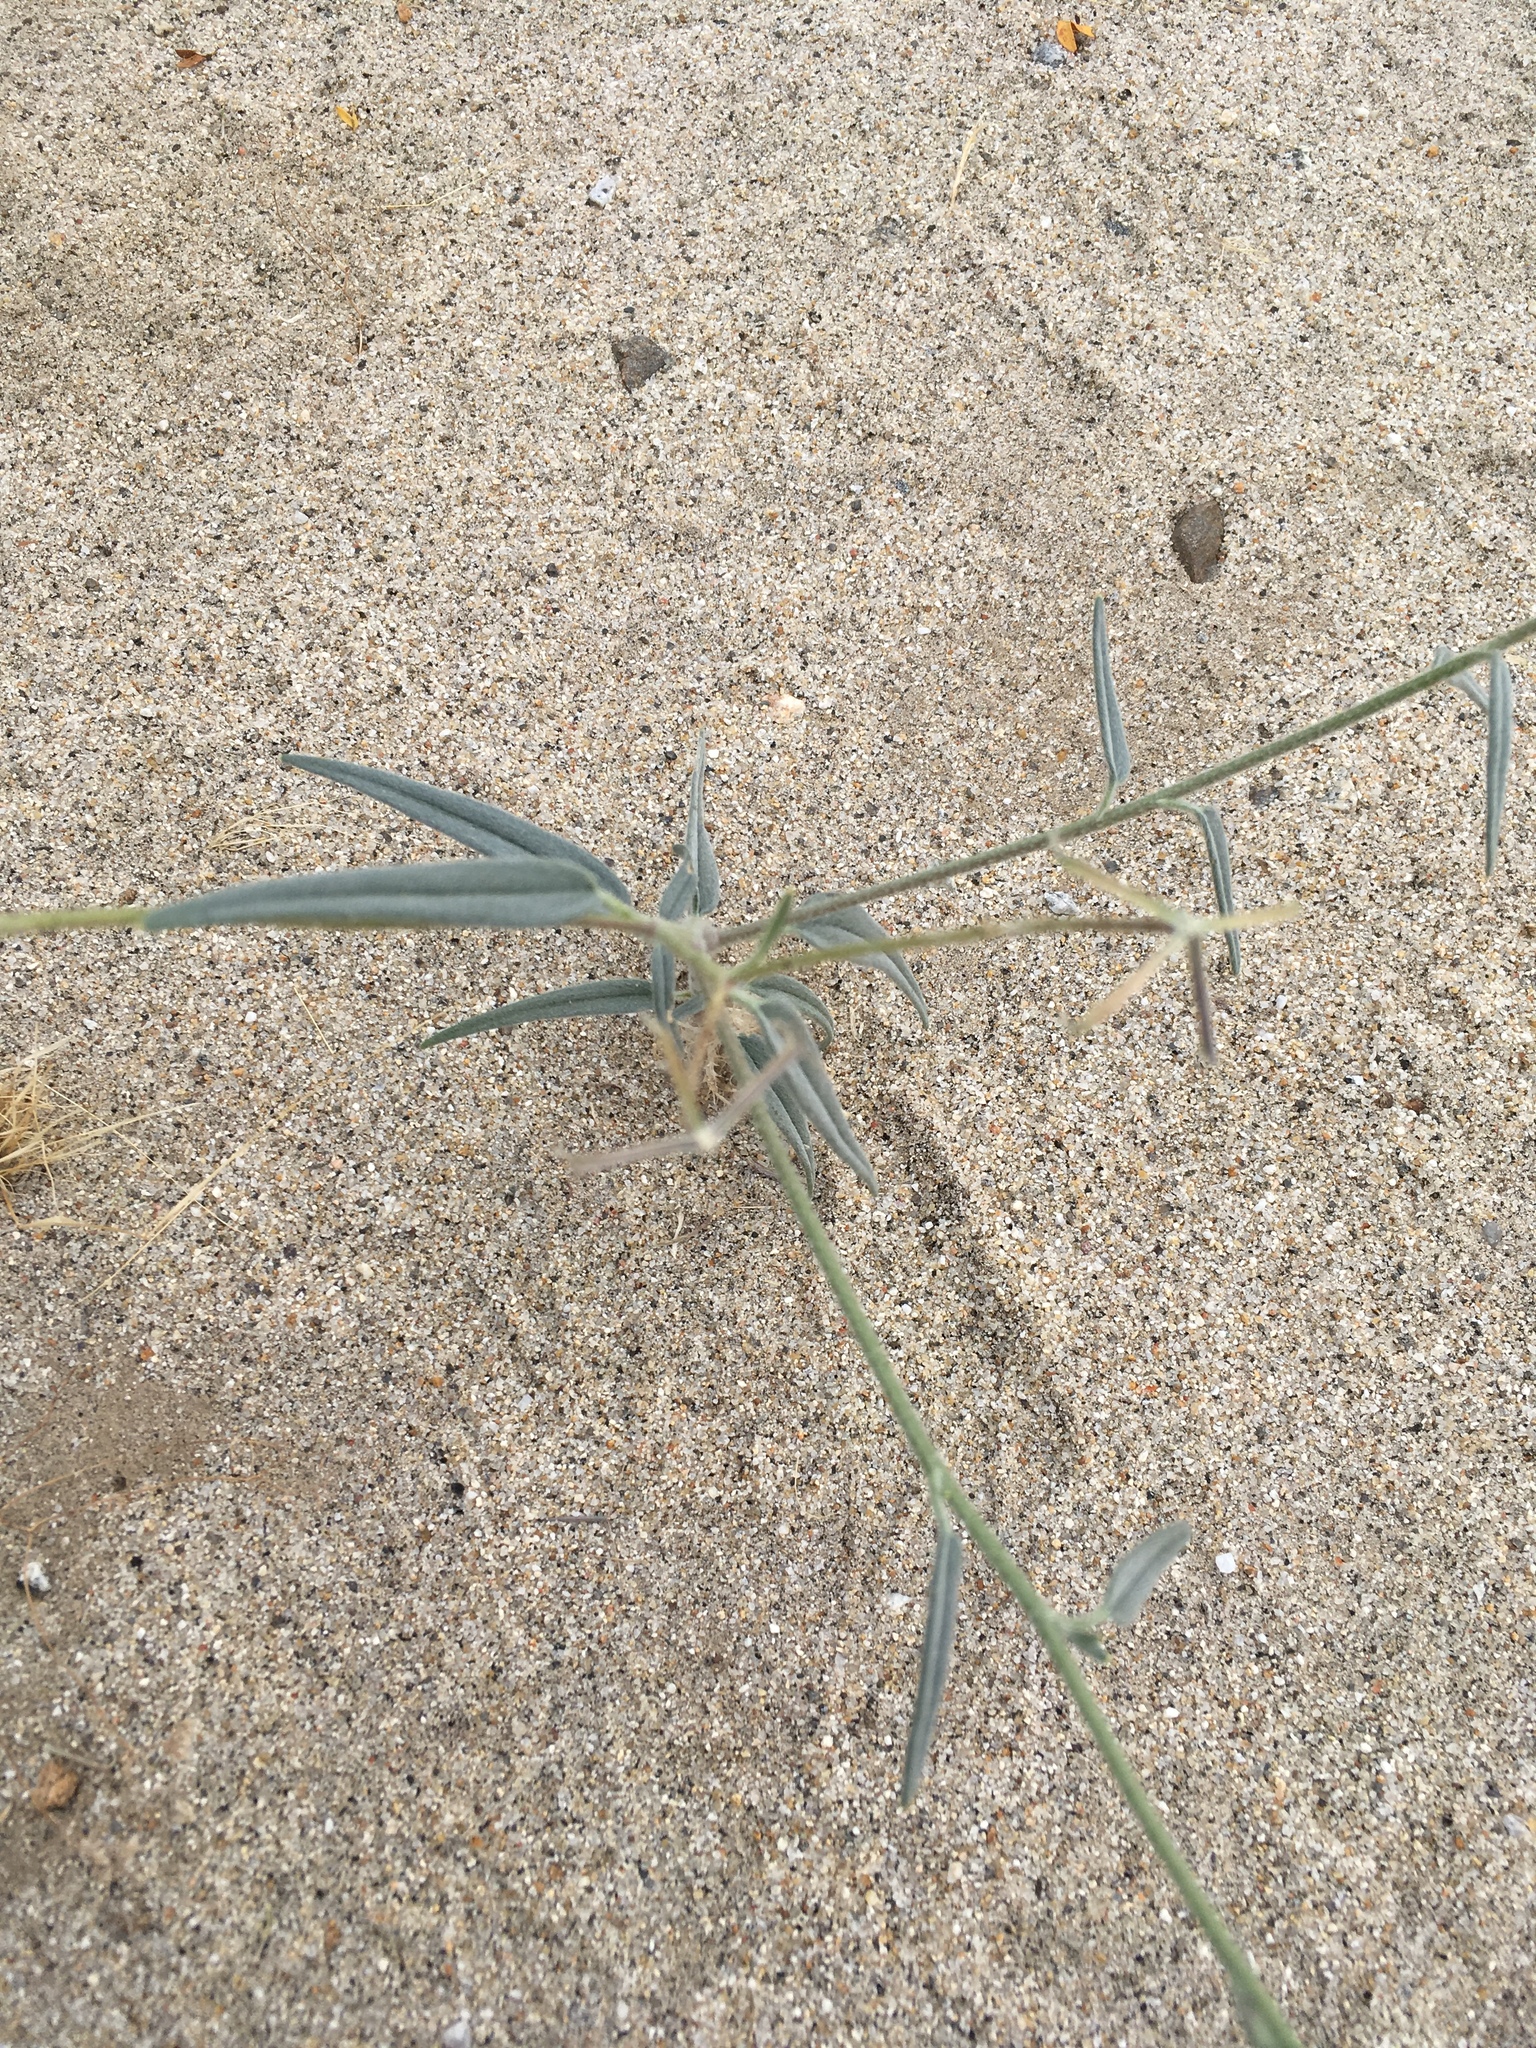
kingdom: Plantae
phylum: Tracheophyta
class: Magnoliopsida
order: Asterales
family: Asteraceae
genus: Palafoxia
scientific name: Palafoxia arida
